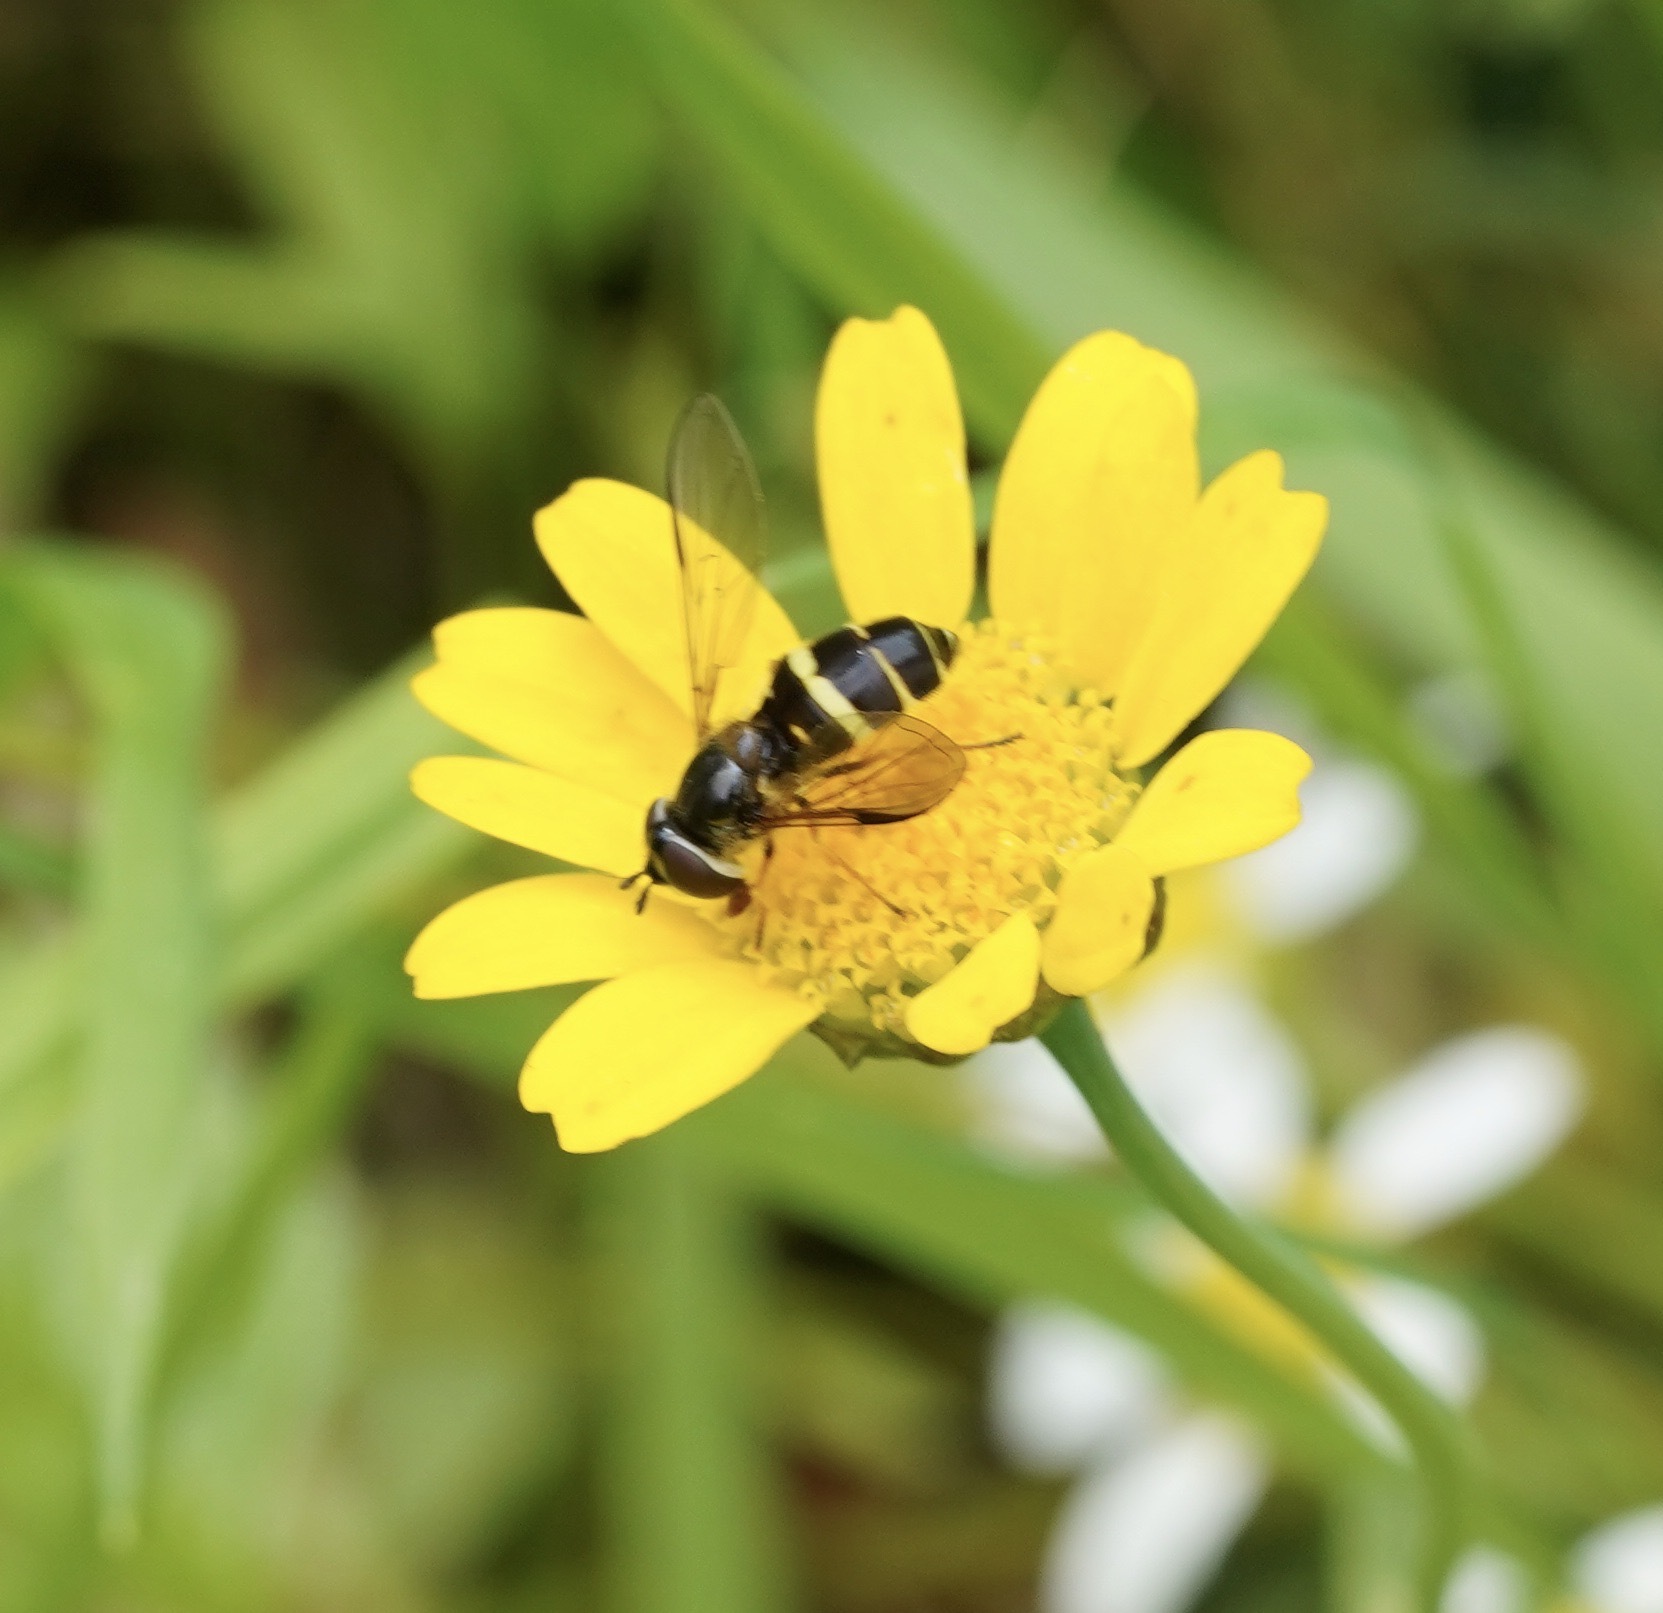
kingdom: Animalia
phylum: Arthropoda
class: Insecta
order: Diptera
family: Syrphidae
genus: Dasysyrphus
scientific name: Dasysyrphus tricinctus
